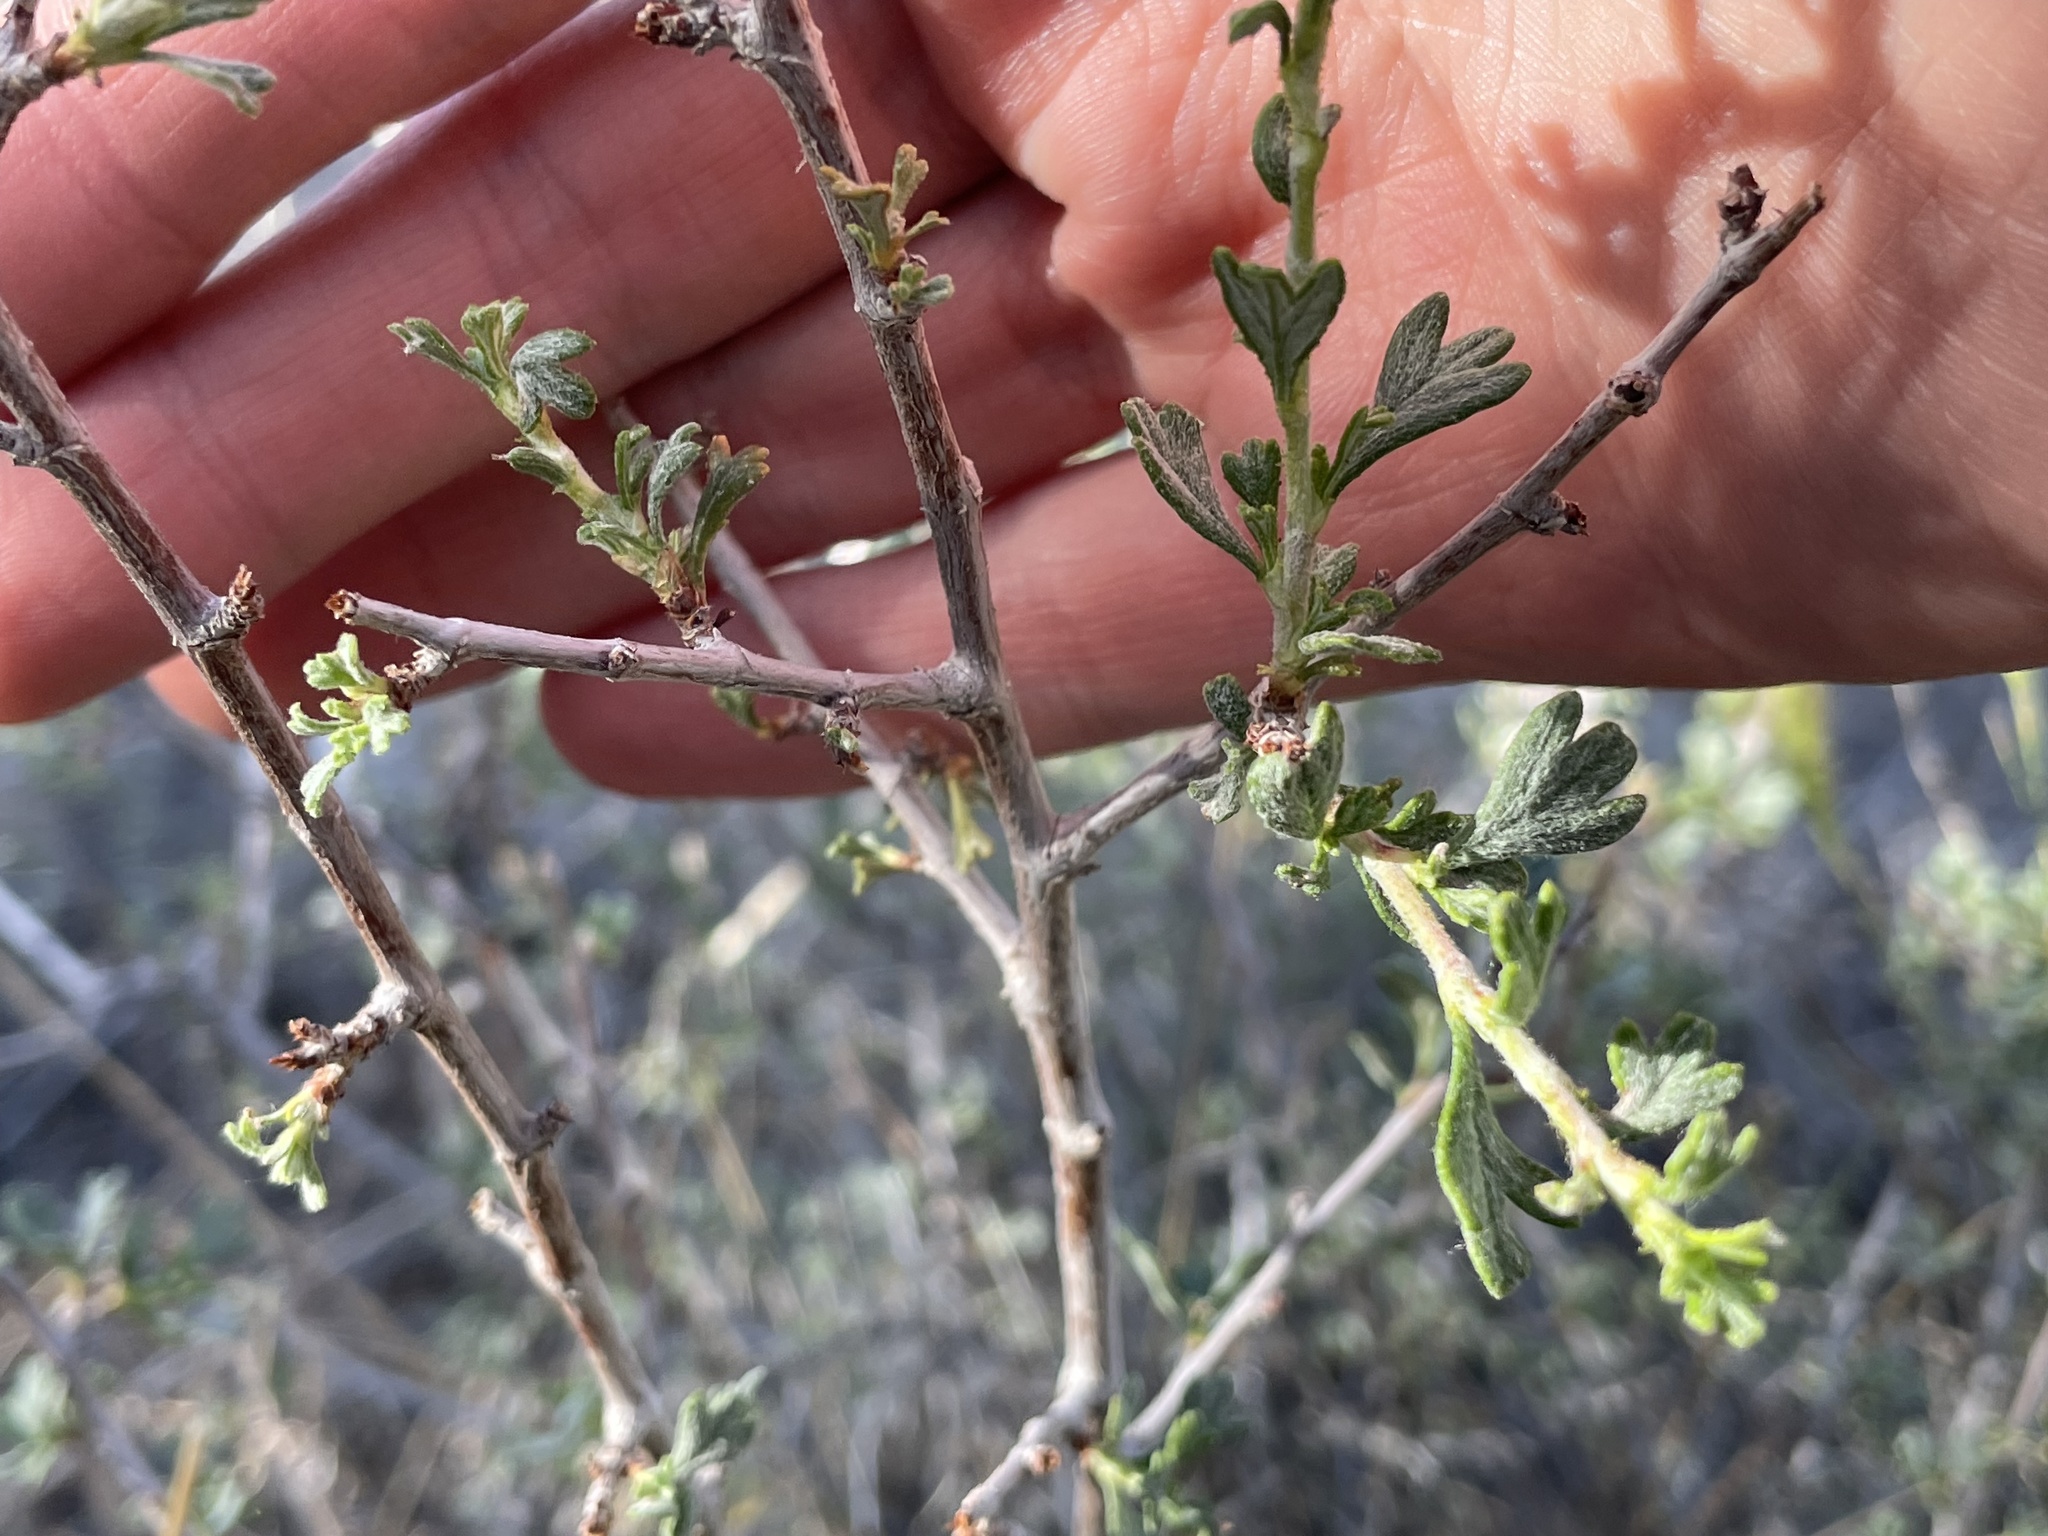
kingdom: Plantae
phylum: Tracheophyta
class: Magnoliopsida
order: Rosales
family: Rosaceae
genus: Purshia
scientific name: Purshia tridentata
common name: Antelope bitterbrush
